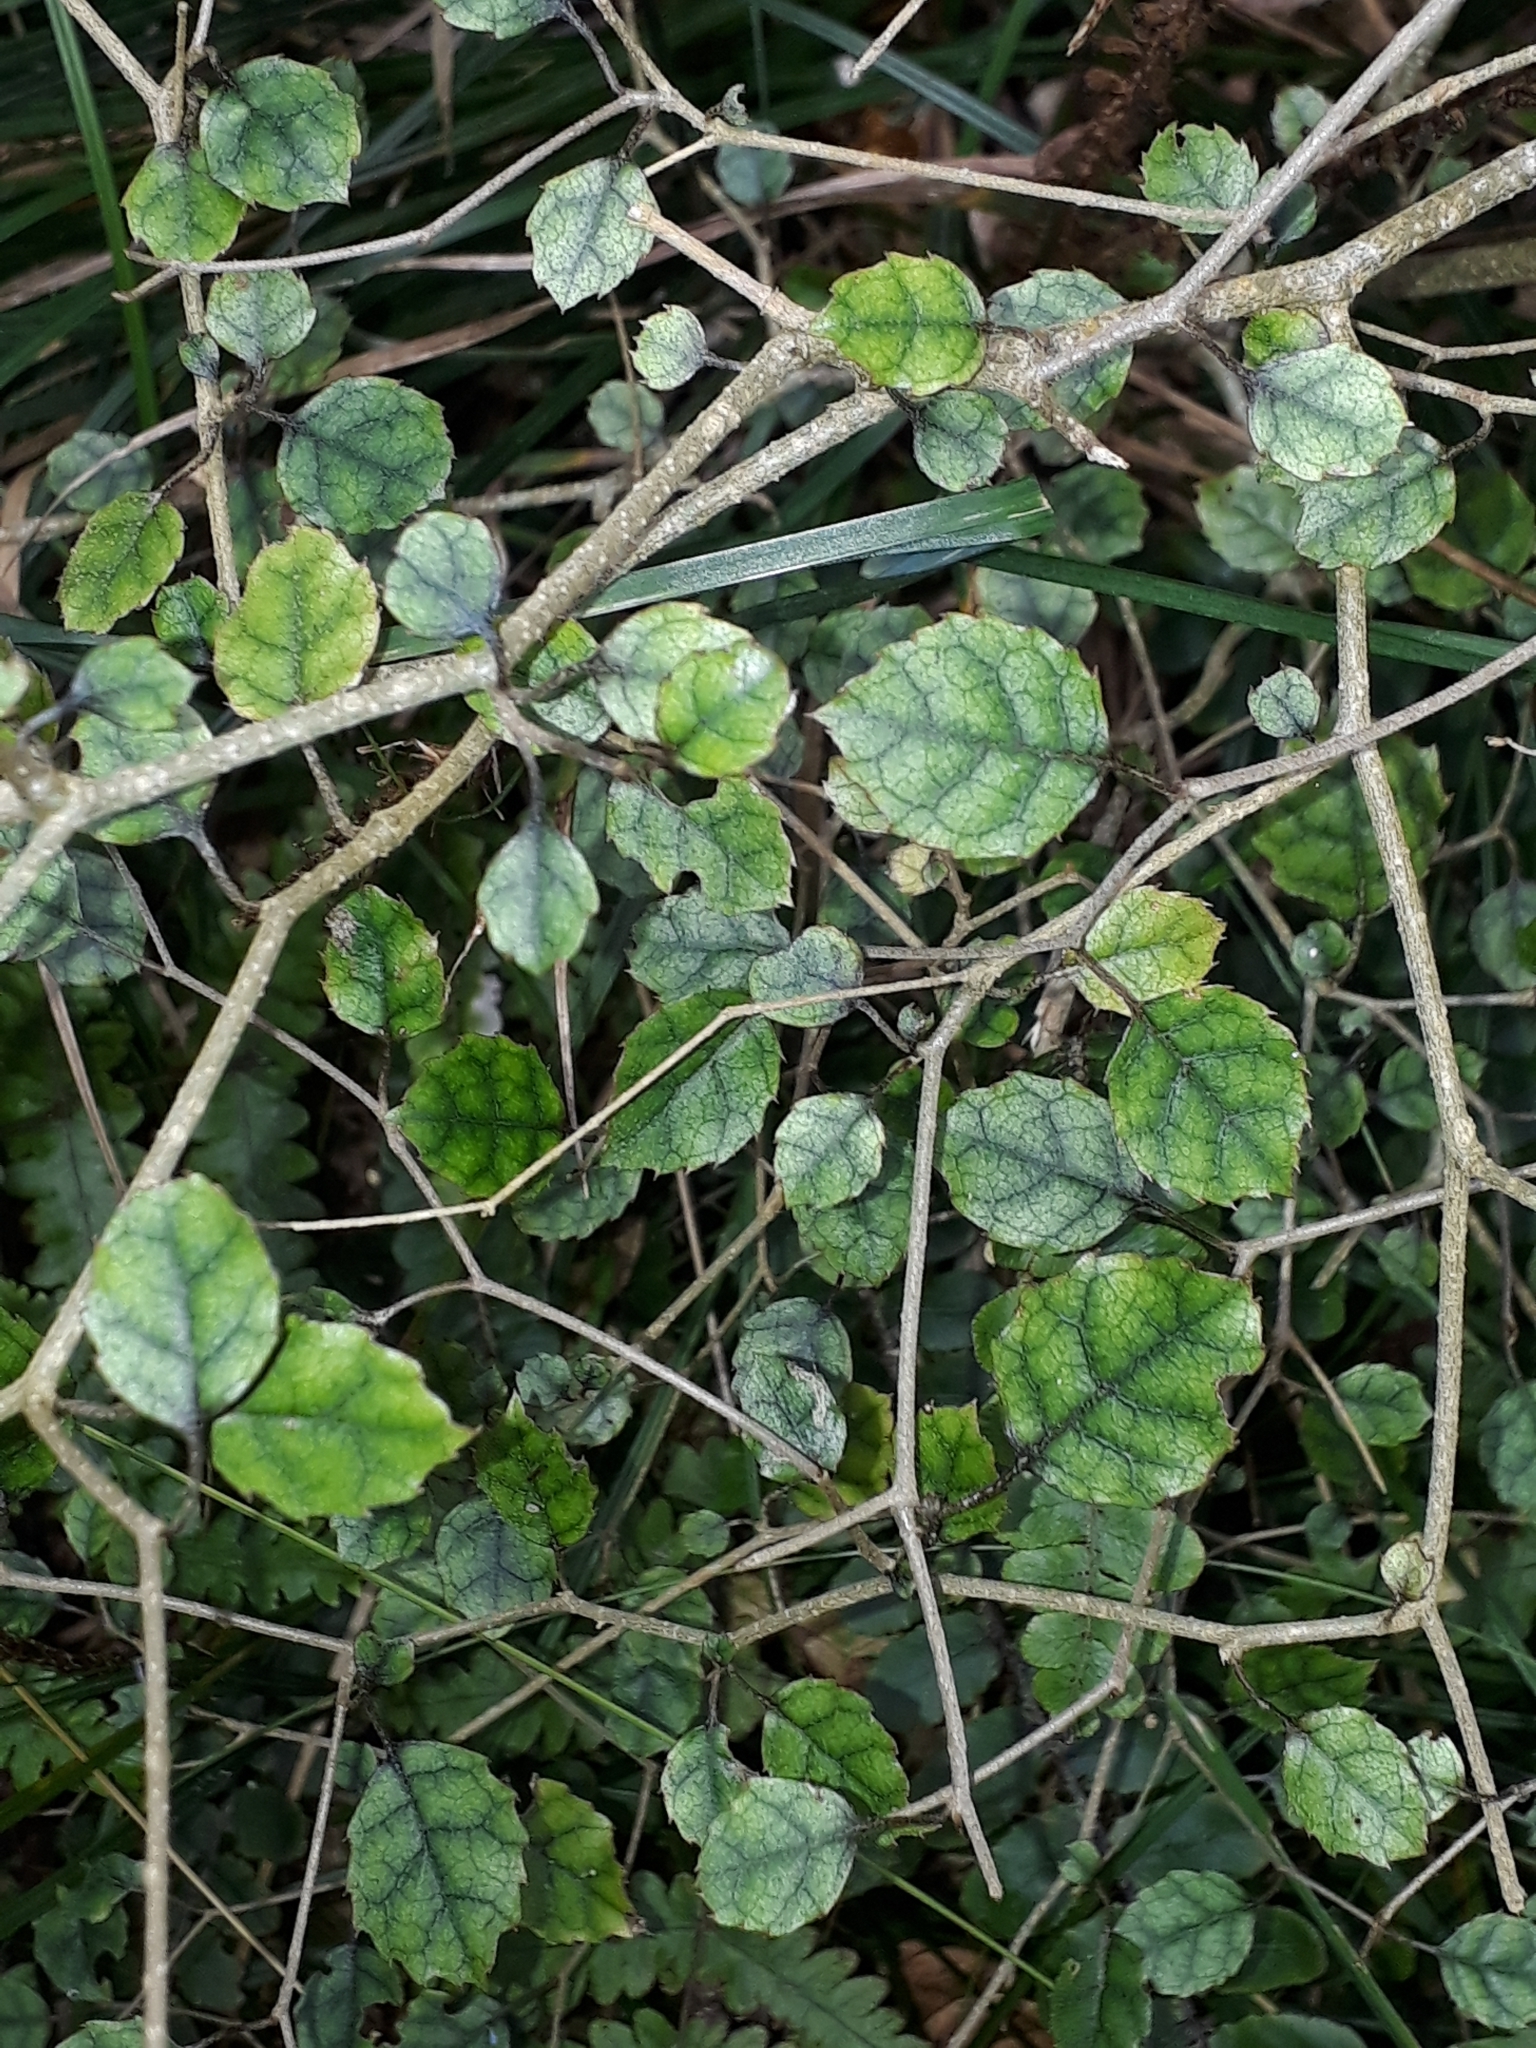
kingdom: Plantae
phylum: Tracheophyta
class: Magnoliopsida
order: Asterales
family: Rousseaceae
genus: Carpodetus
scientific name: Carpodetus serratus
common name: White mapau
